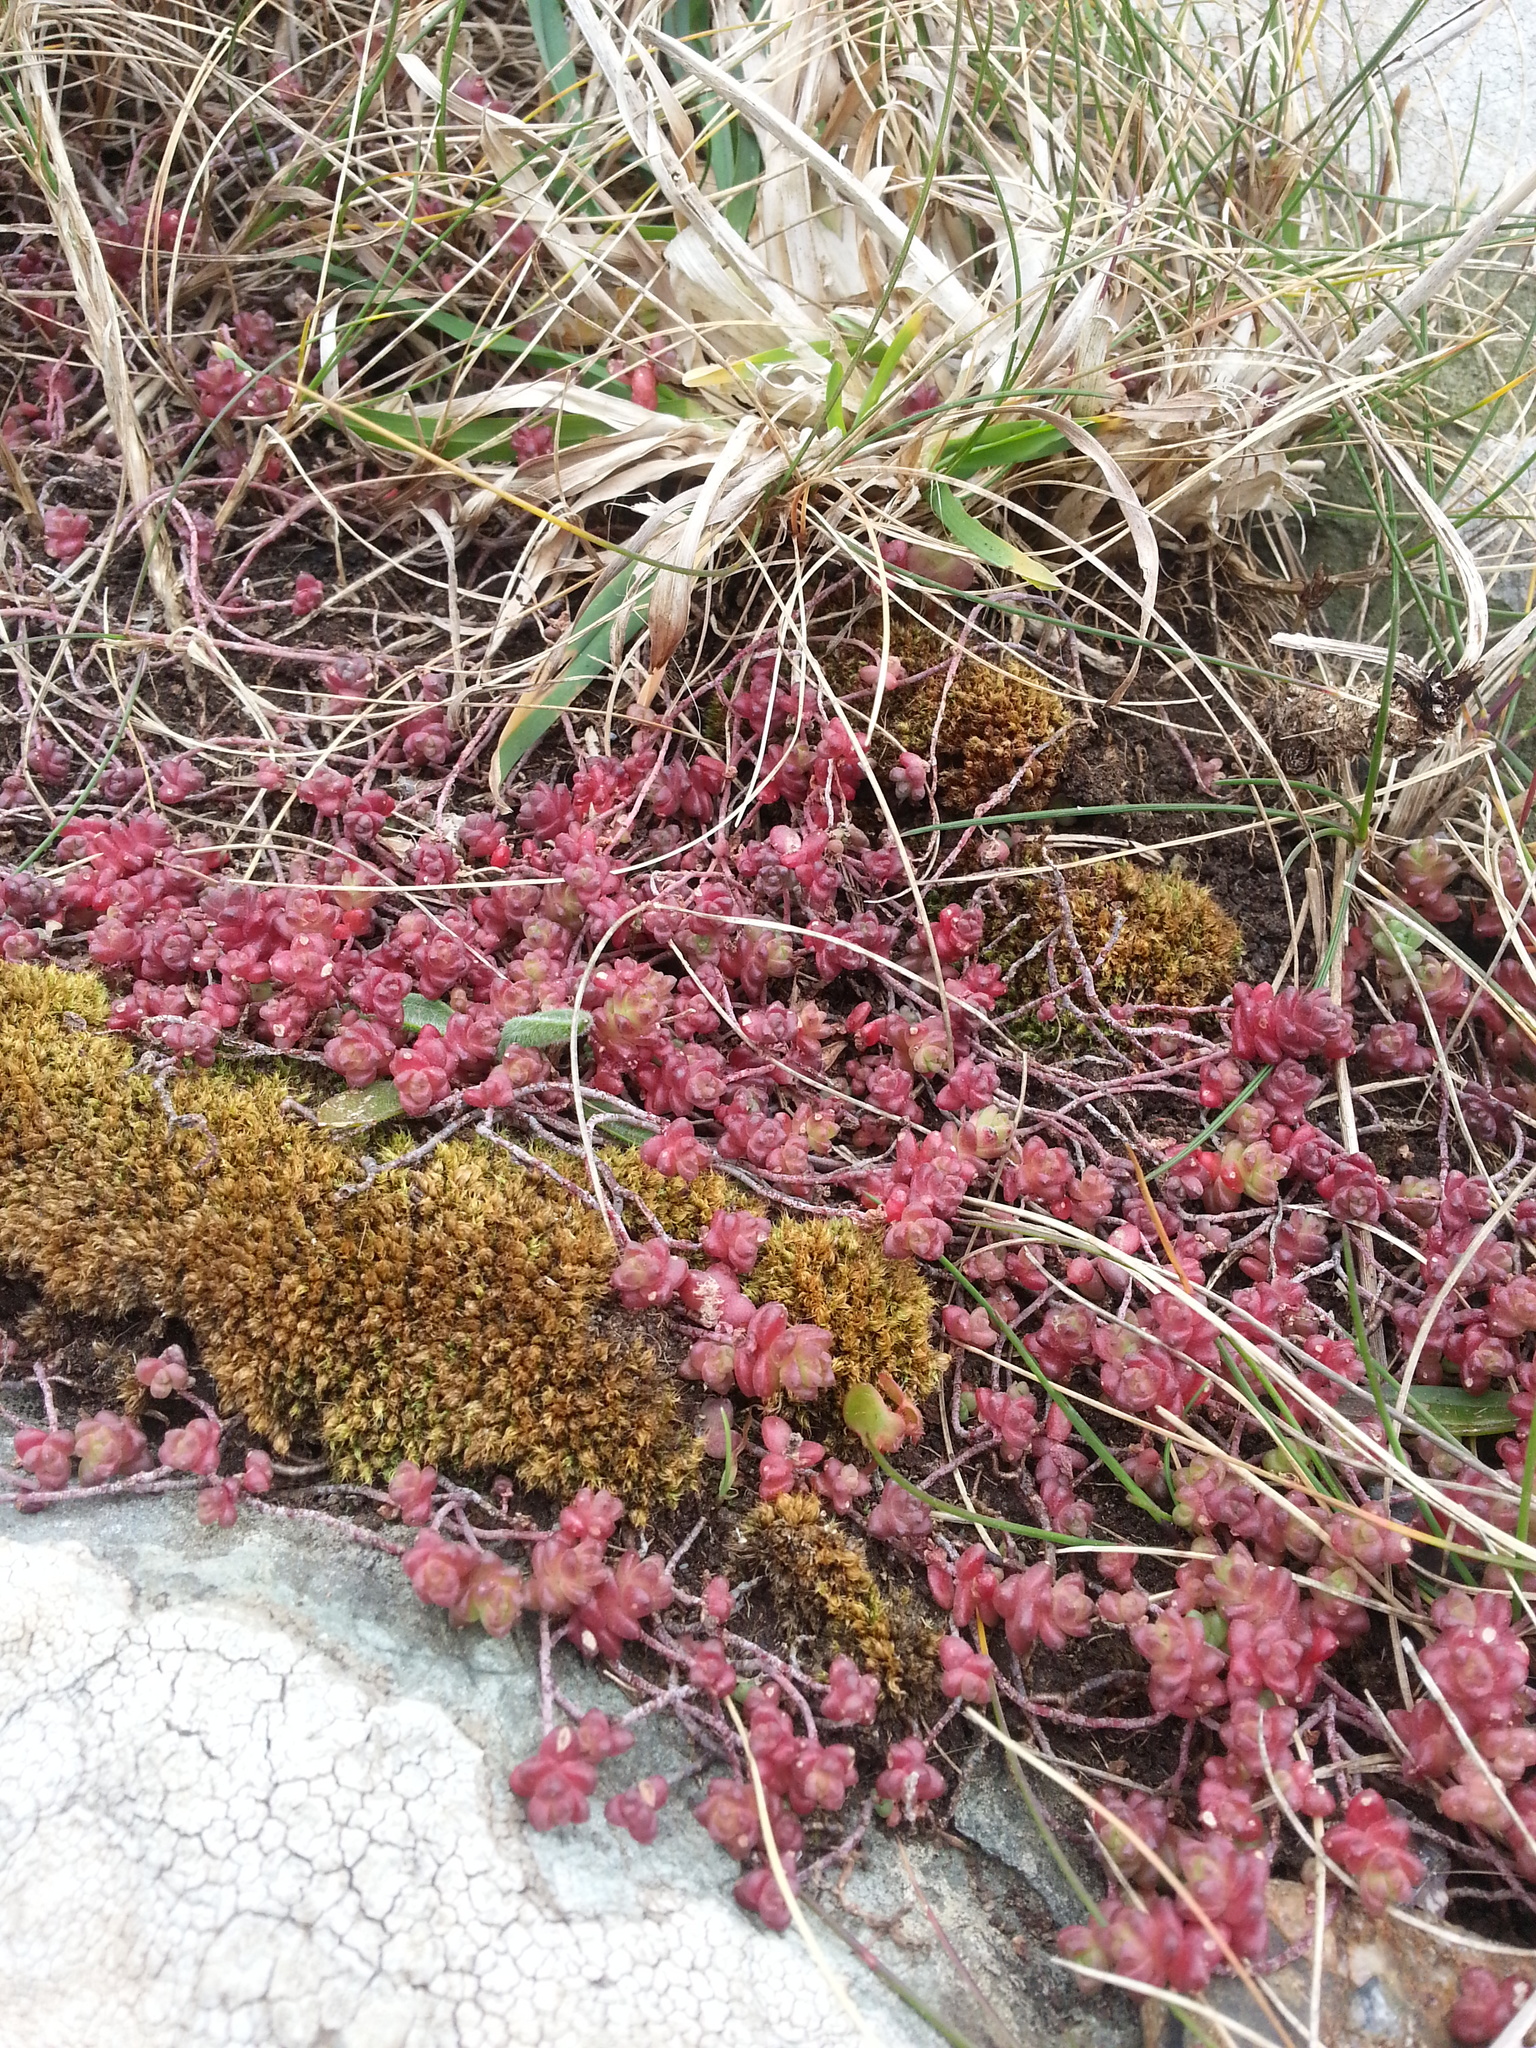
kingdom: Plantae
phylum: Tracheophyta
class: Magnoliopsida
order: Saxifragales
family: Crassulaceae
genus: Sedum
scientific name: Sedum anglicum
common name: English stonecrop
